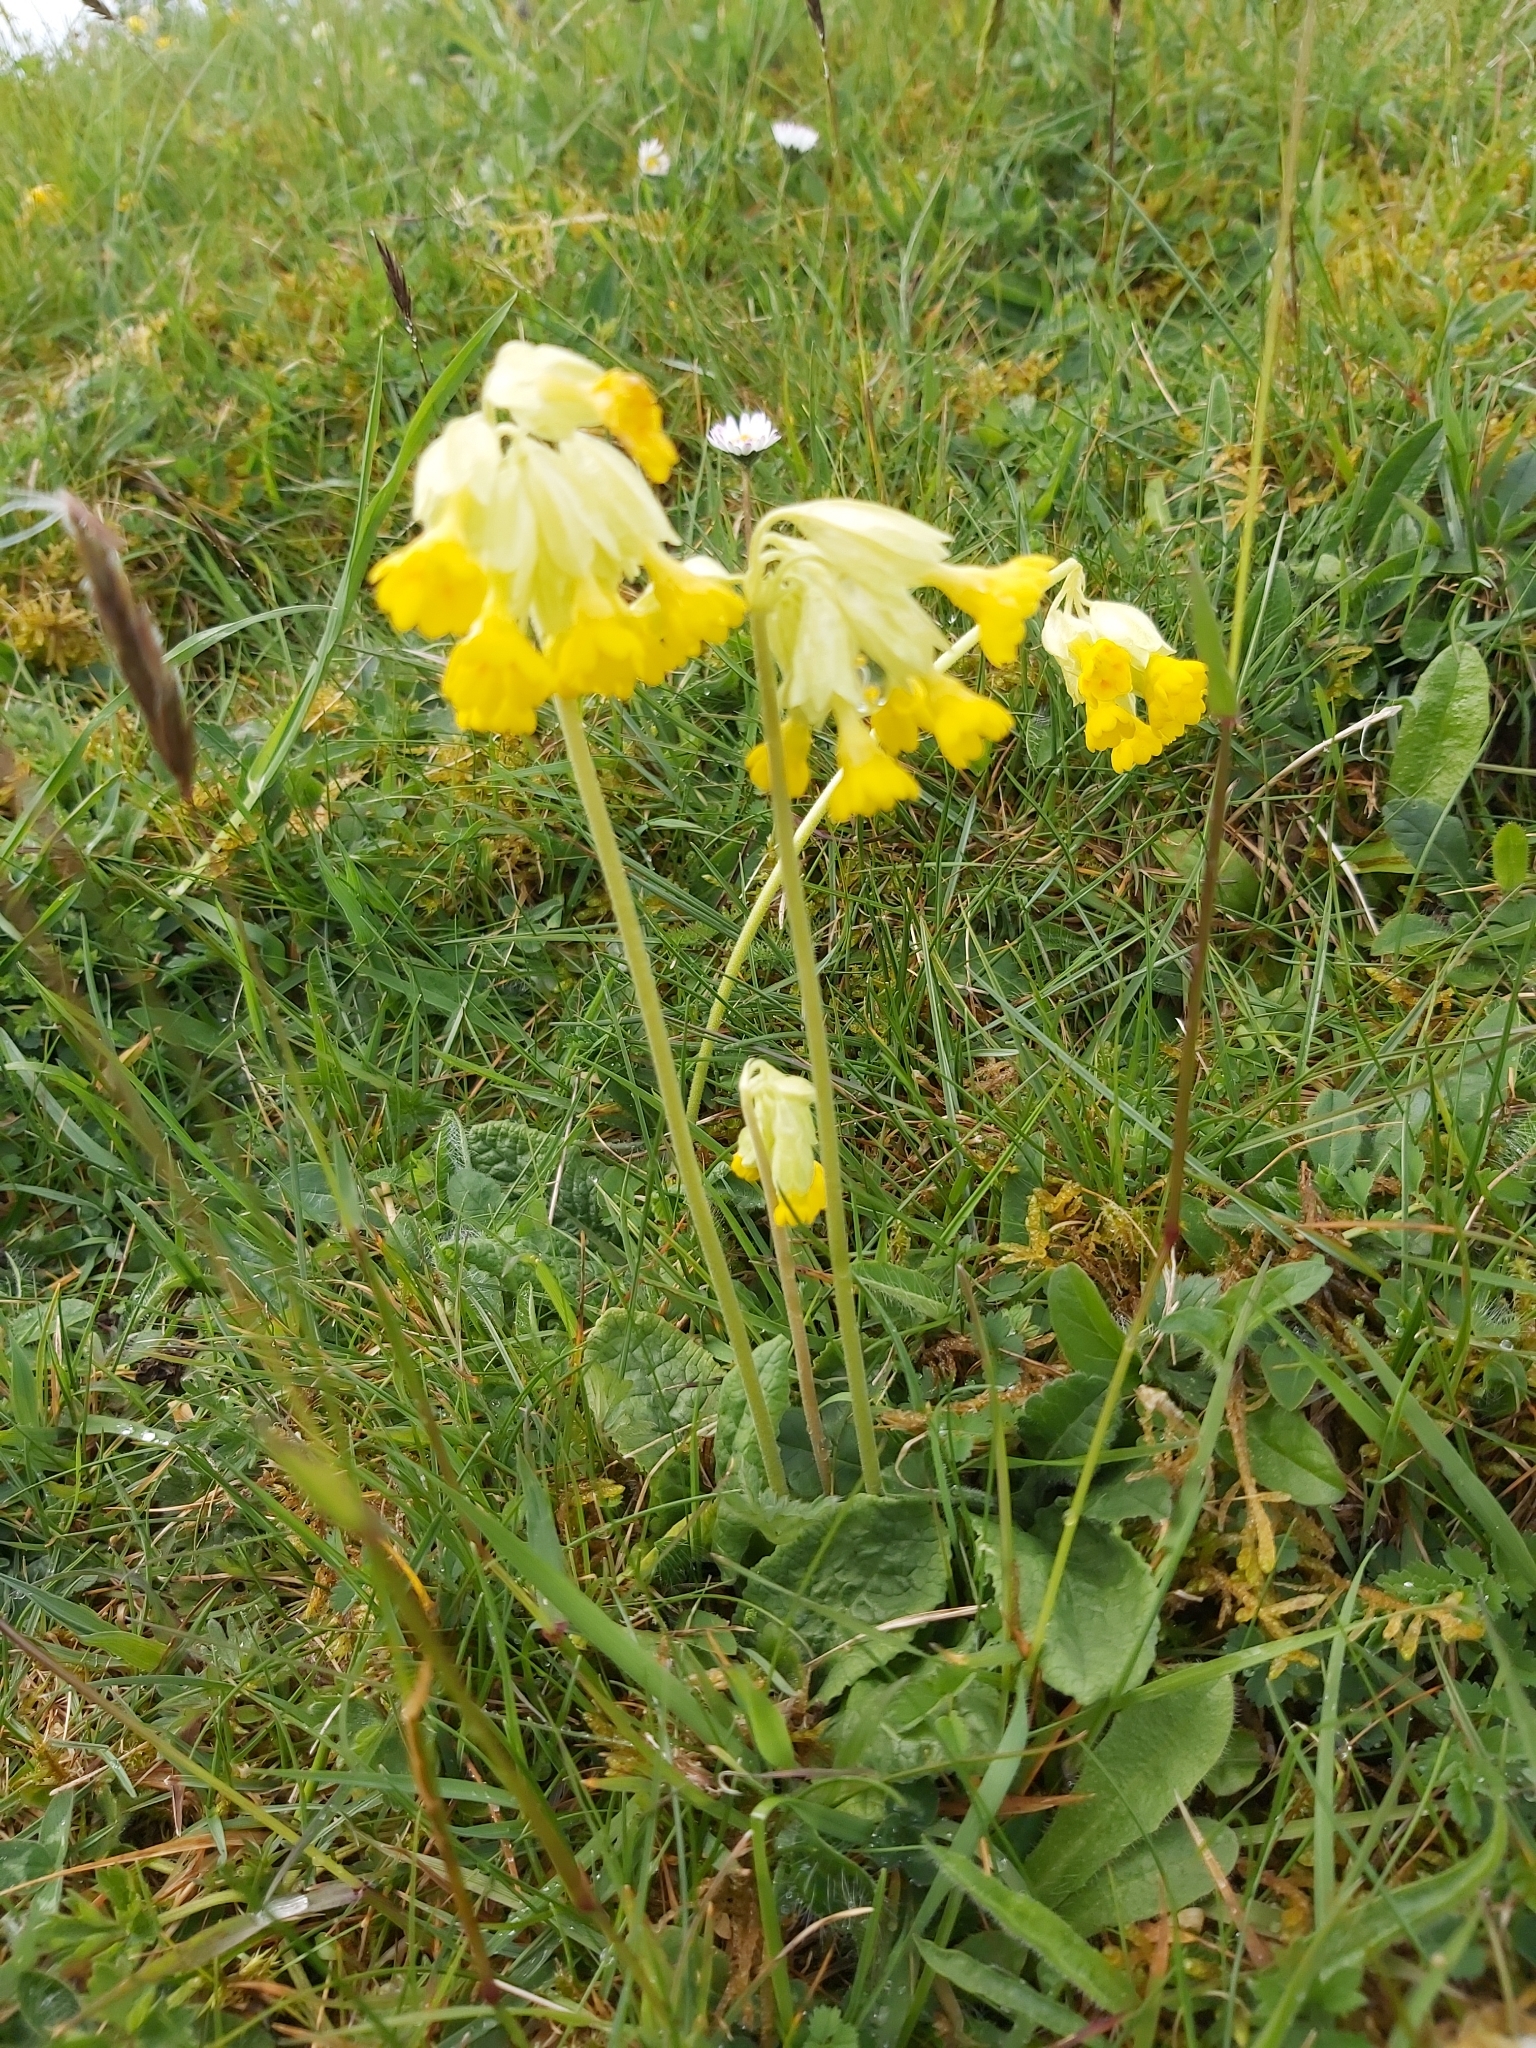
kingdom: Plantae
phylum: Tracheophyta
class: Magnoliopsida
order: Ericales
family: Primulaceae
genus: Primula
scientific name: Primula veris
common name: Cowslip
